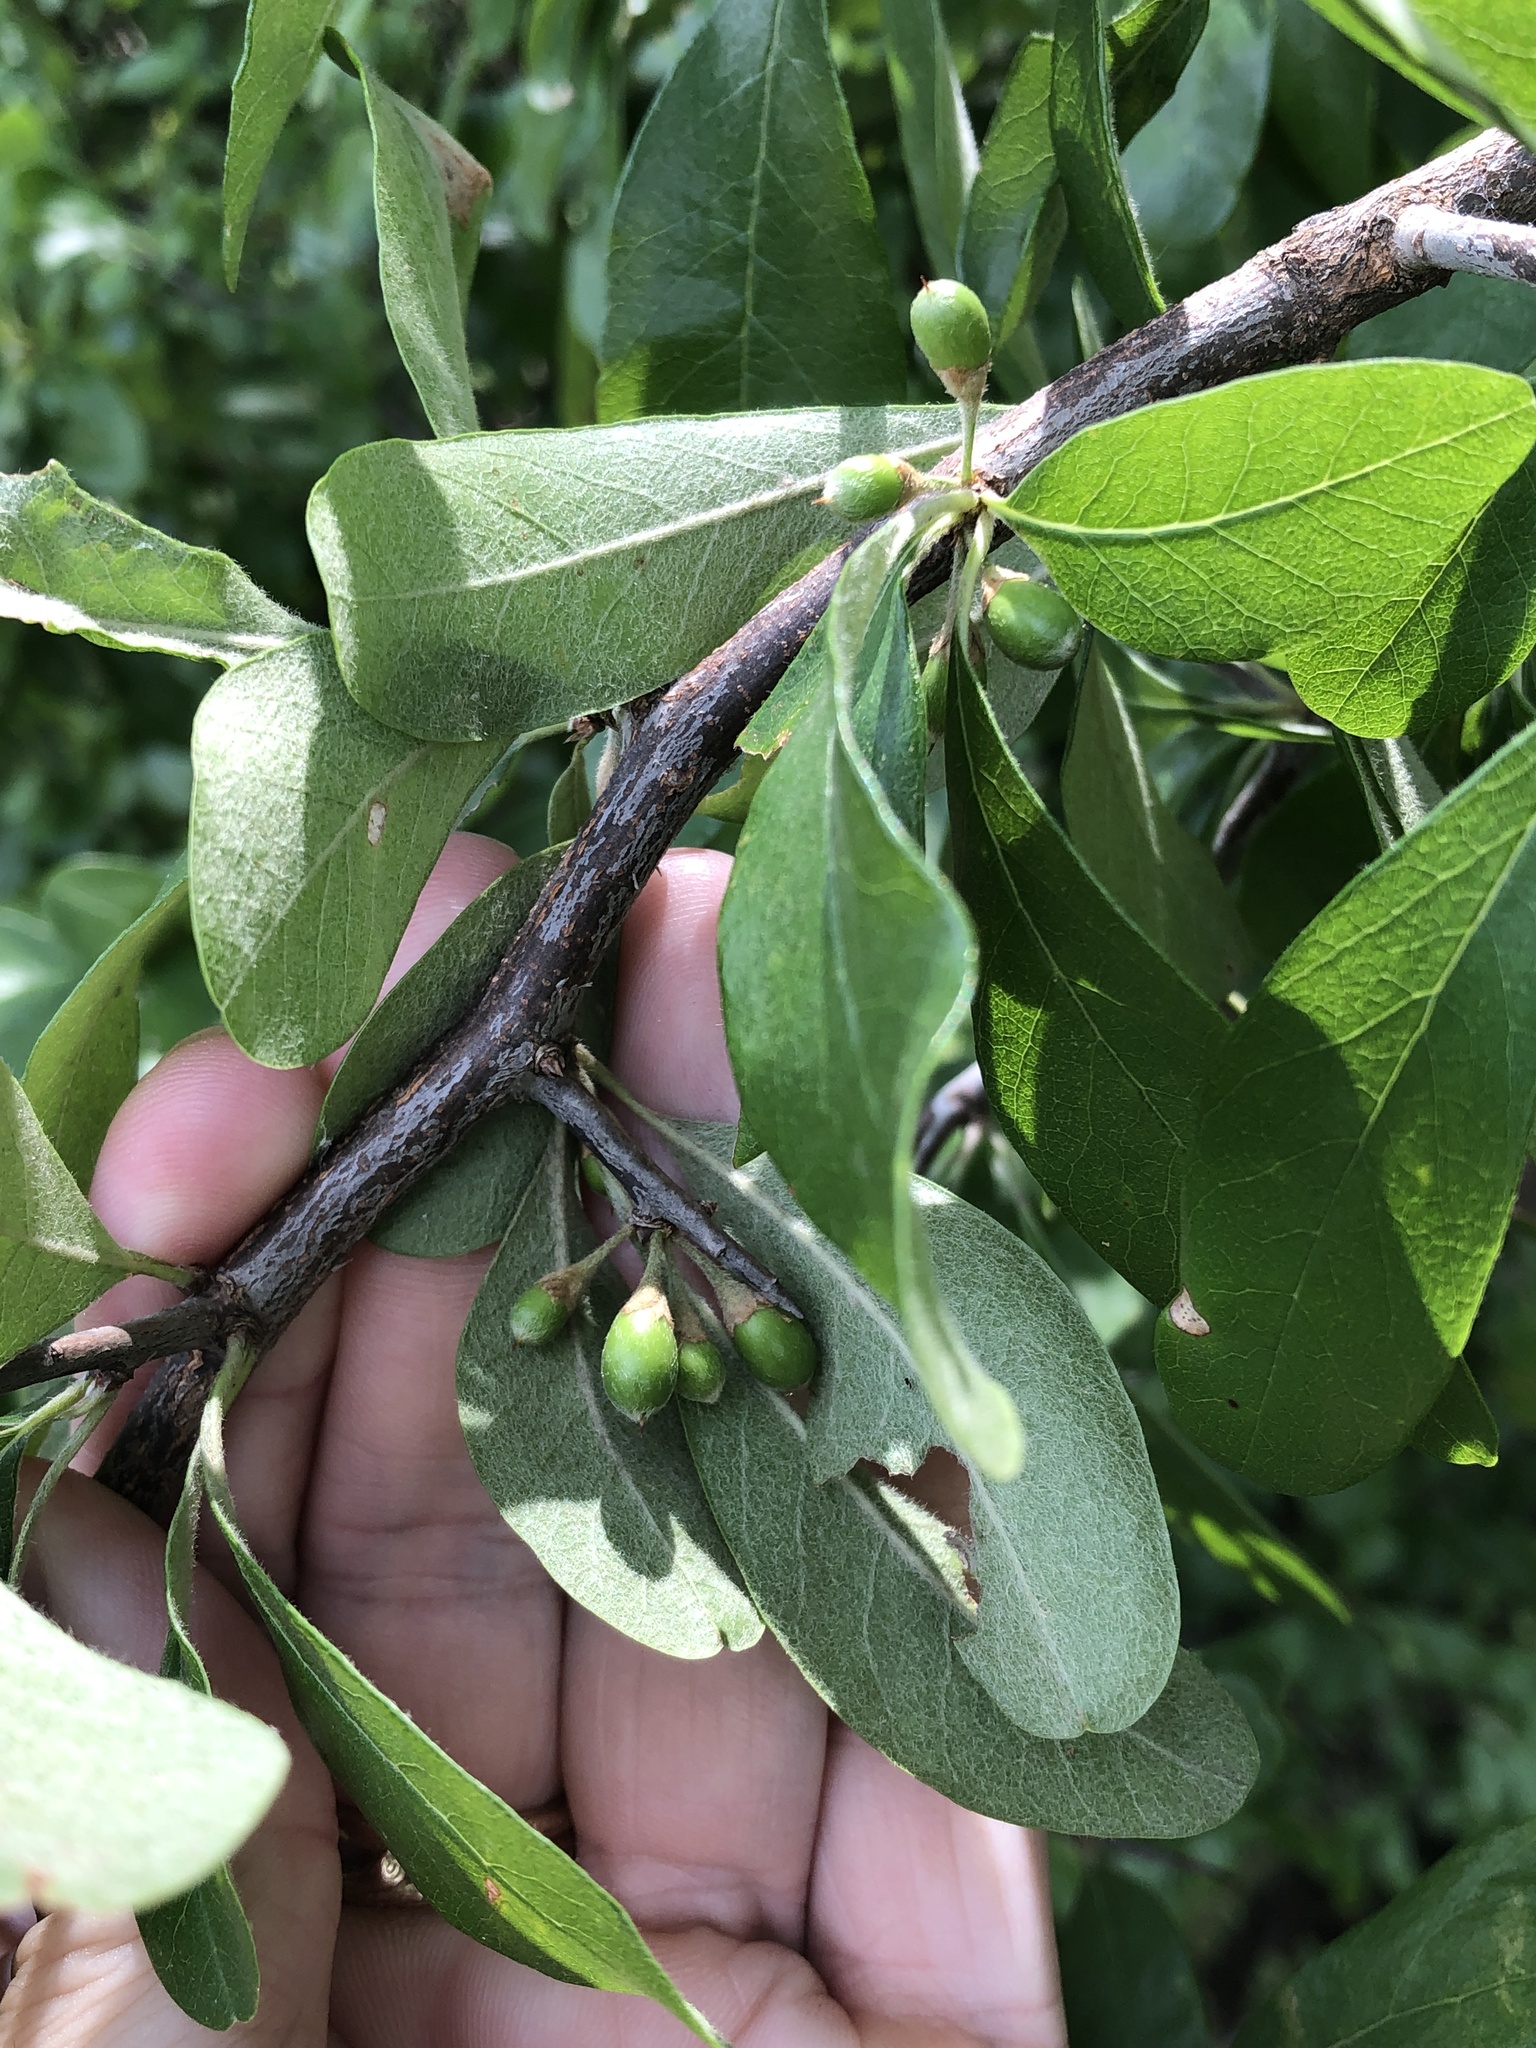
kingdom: Plantae
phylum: Tracheophyta
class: Magnoliopsida
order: Ericales
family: Sapotaceae
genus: Sideroxylon
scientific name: Sideroxylon lanuginosum
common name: Chittamwood
